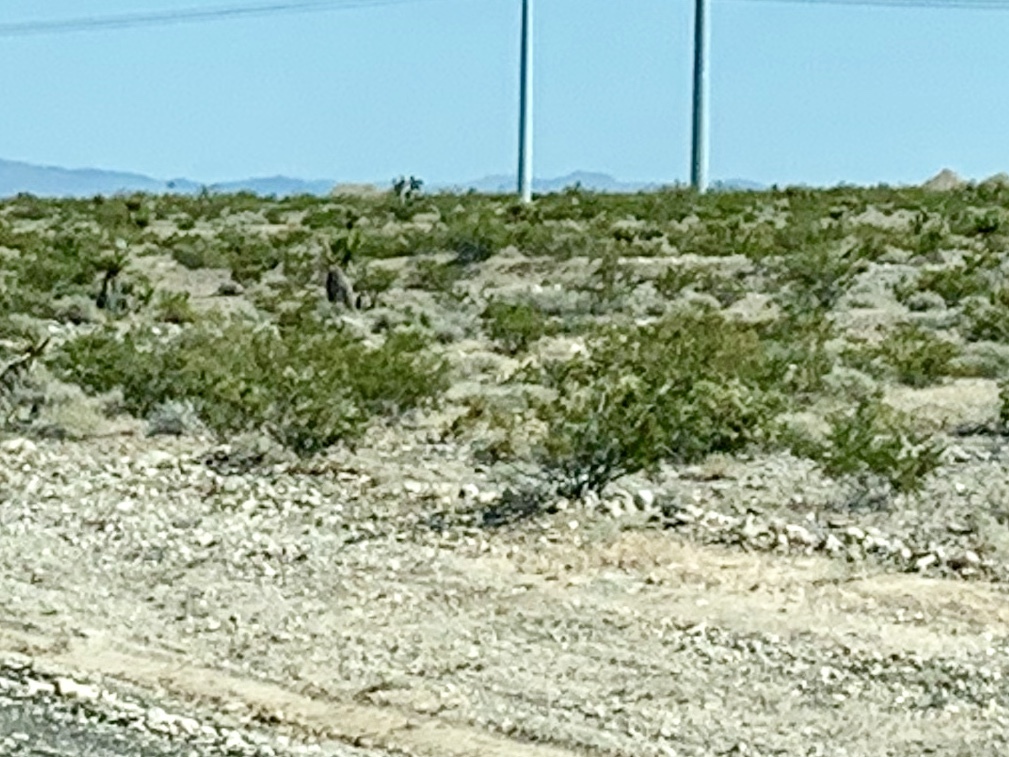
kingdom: Plantae
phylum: Tracheophyta
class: Magnoliopsida
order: Zygophyllales
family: Zygophyllaceae
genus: Larrea
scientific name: Larrea tridentata
